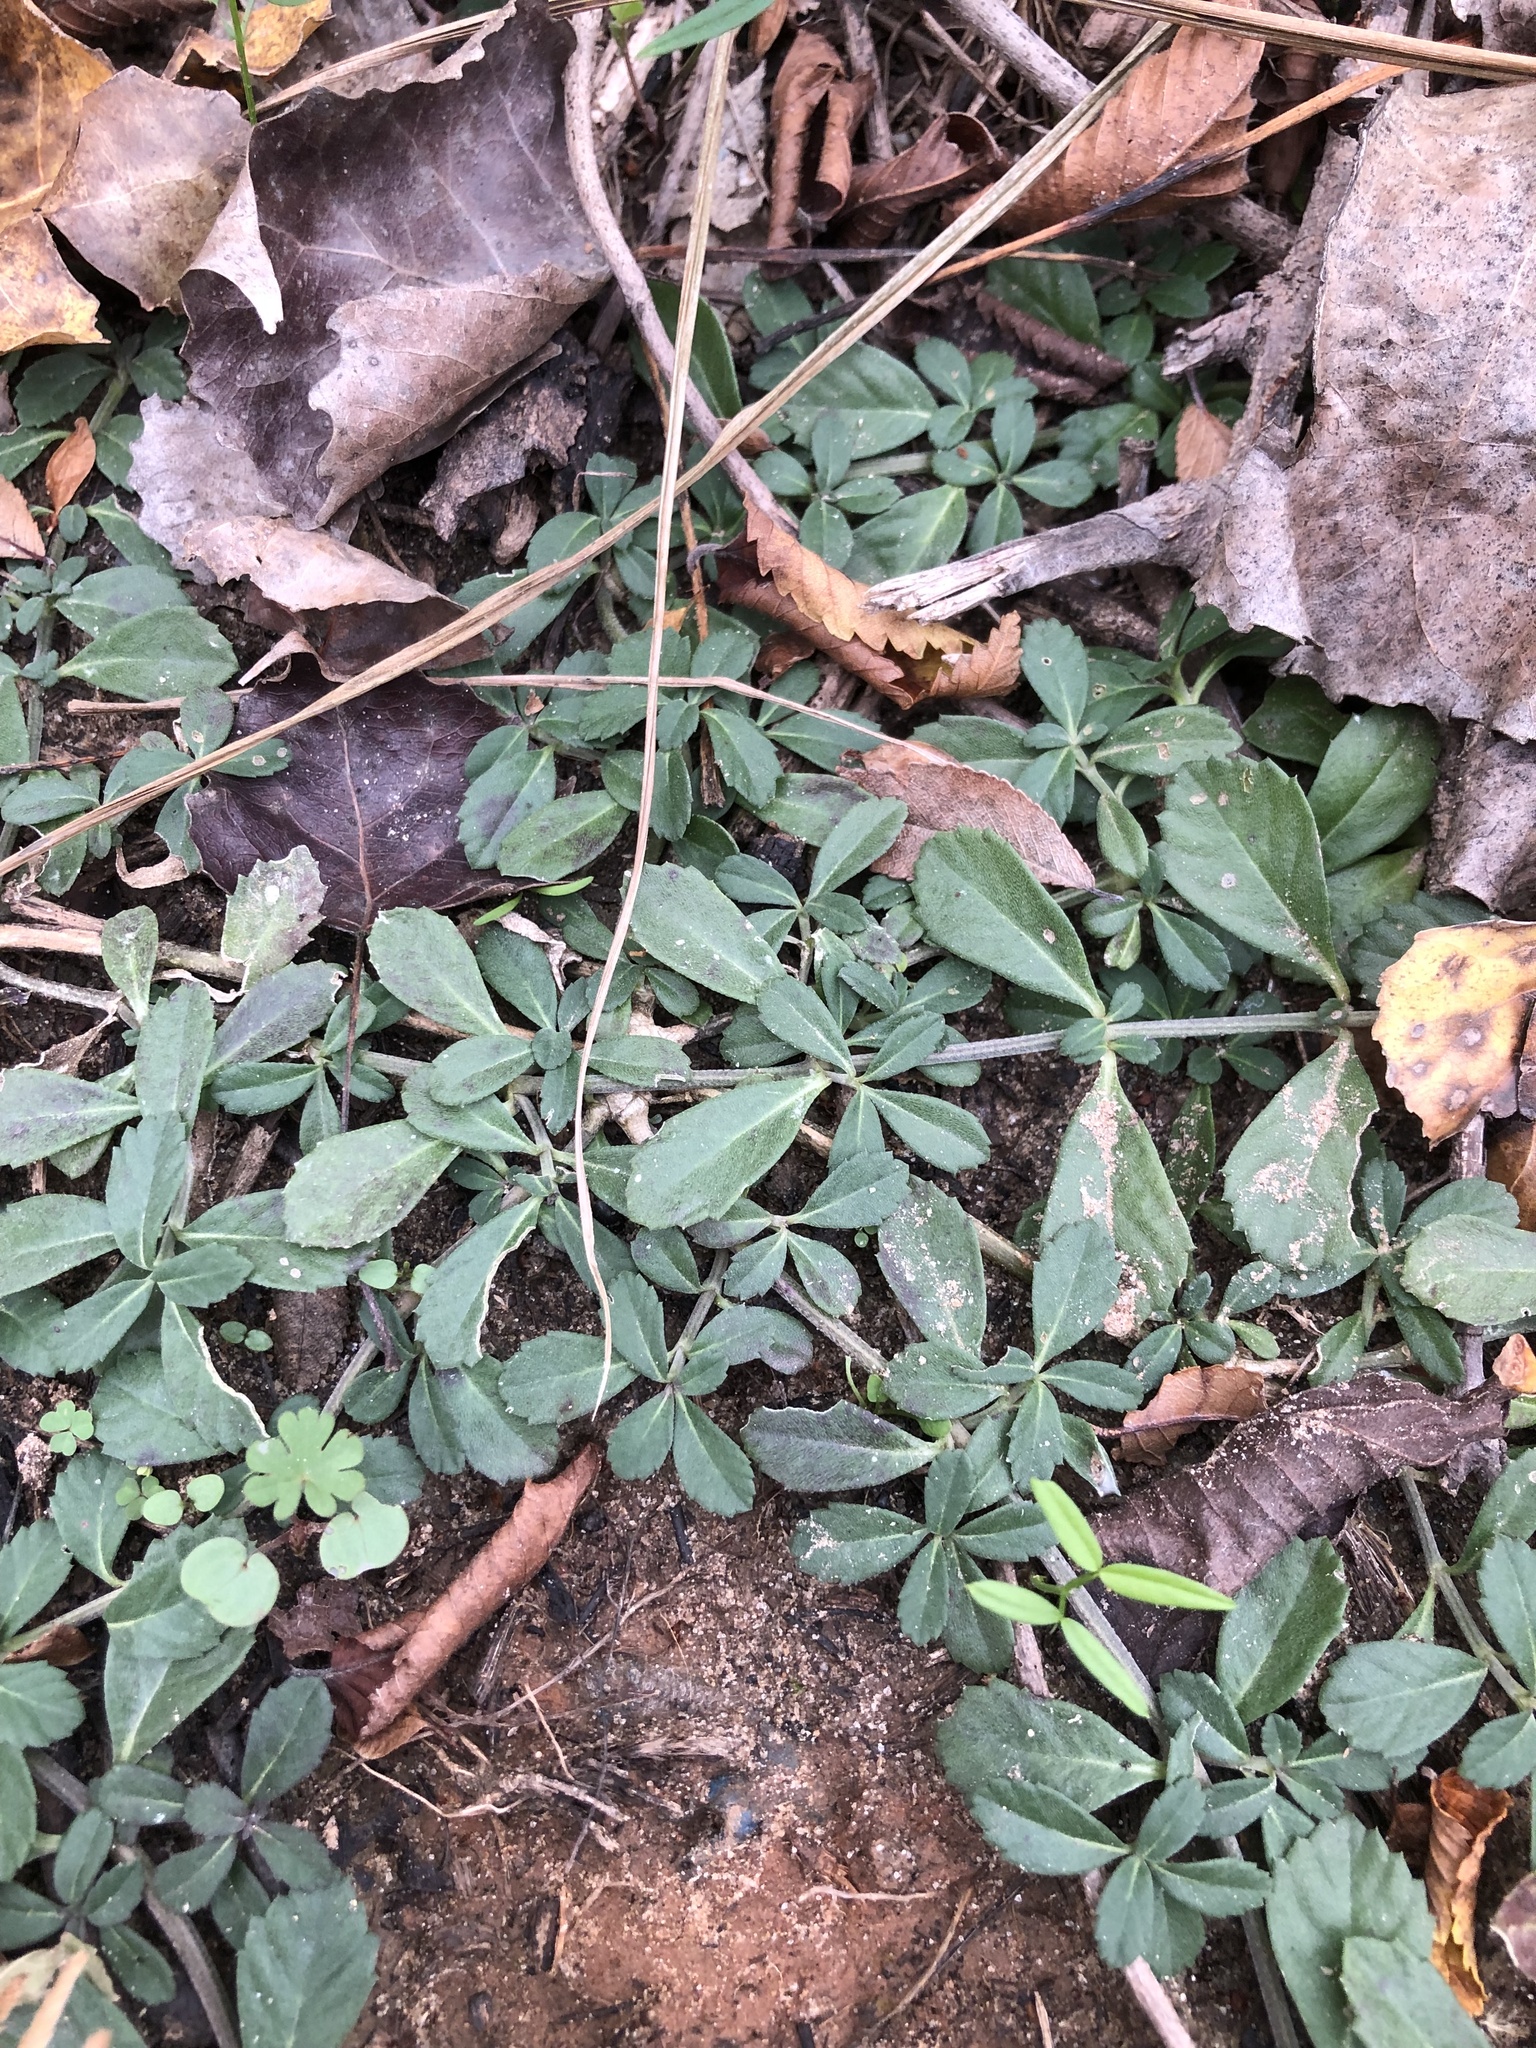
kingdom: Plantae
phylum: Tracheophyta
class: Magnoliopsida
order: Lamiales
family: Verbenaceae
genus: Phyla
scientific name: Phyla nodiflora
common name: Frogfruit
